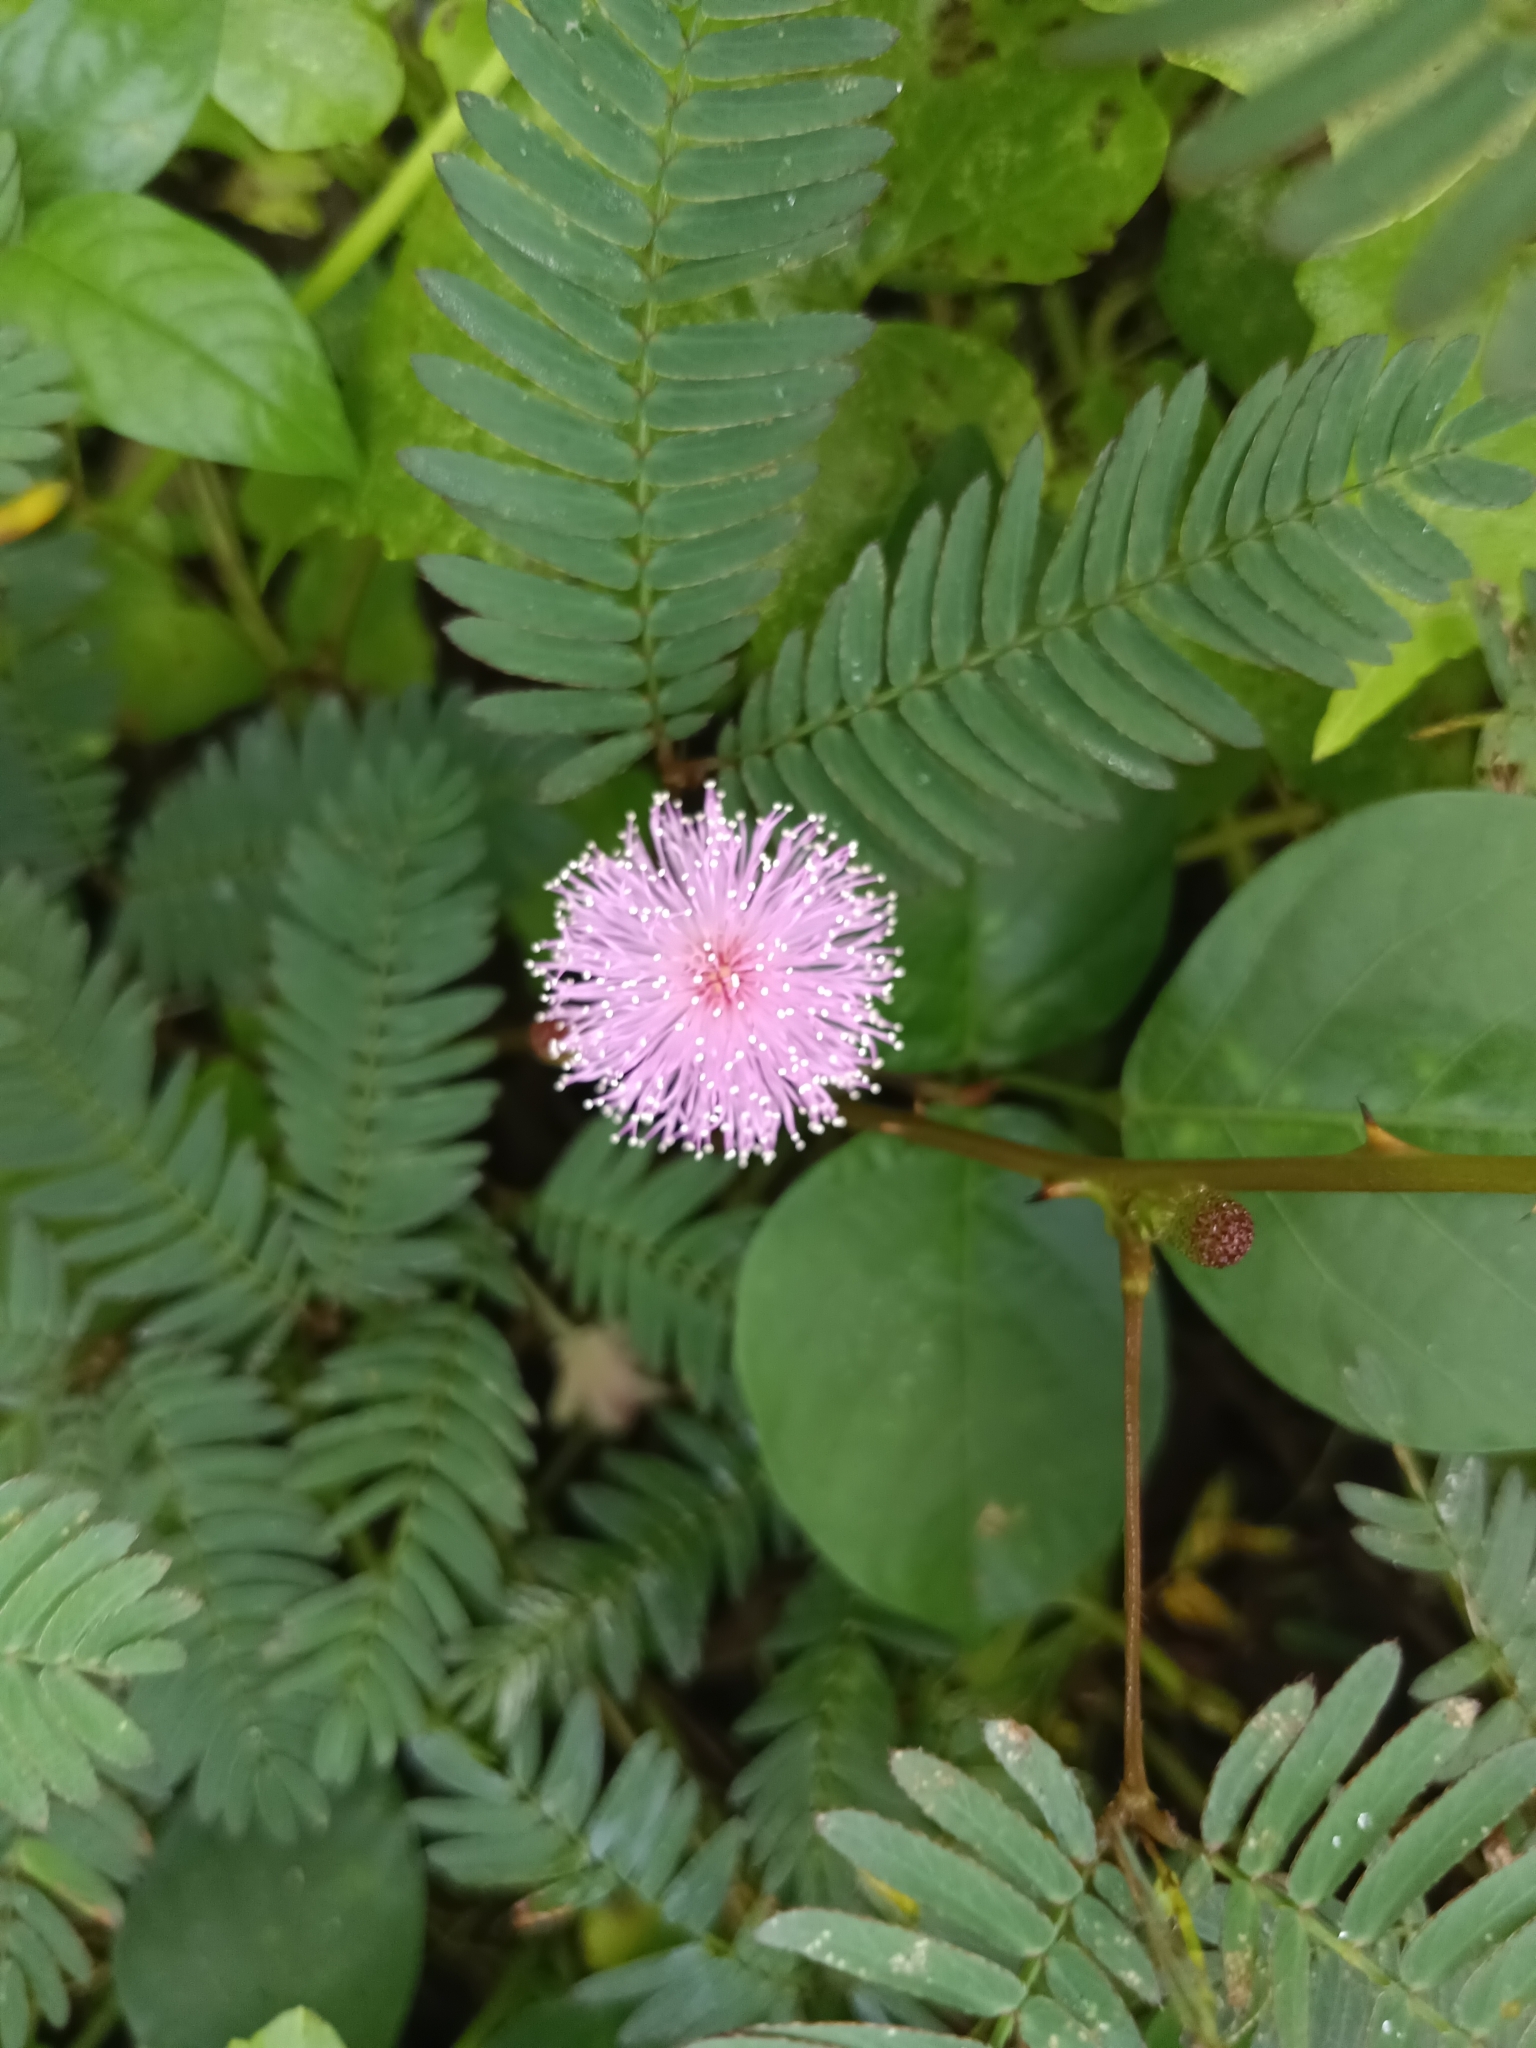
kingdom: Plantae
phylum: Tracheophyta
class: Magnoliopsida
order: Fabales
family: Fabaceae
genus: Mimosa
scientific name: Mimosa pudica
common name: Sensitive plant
